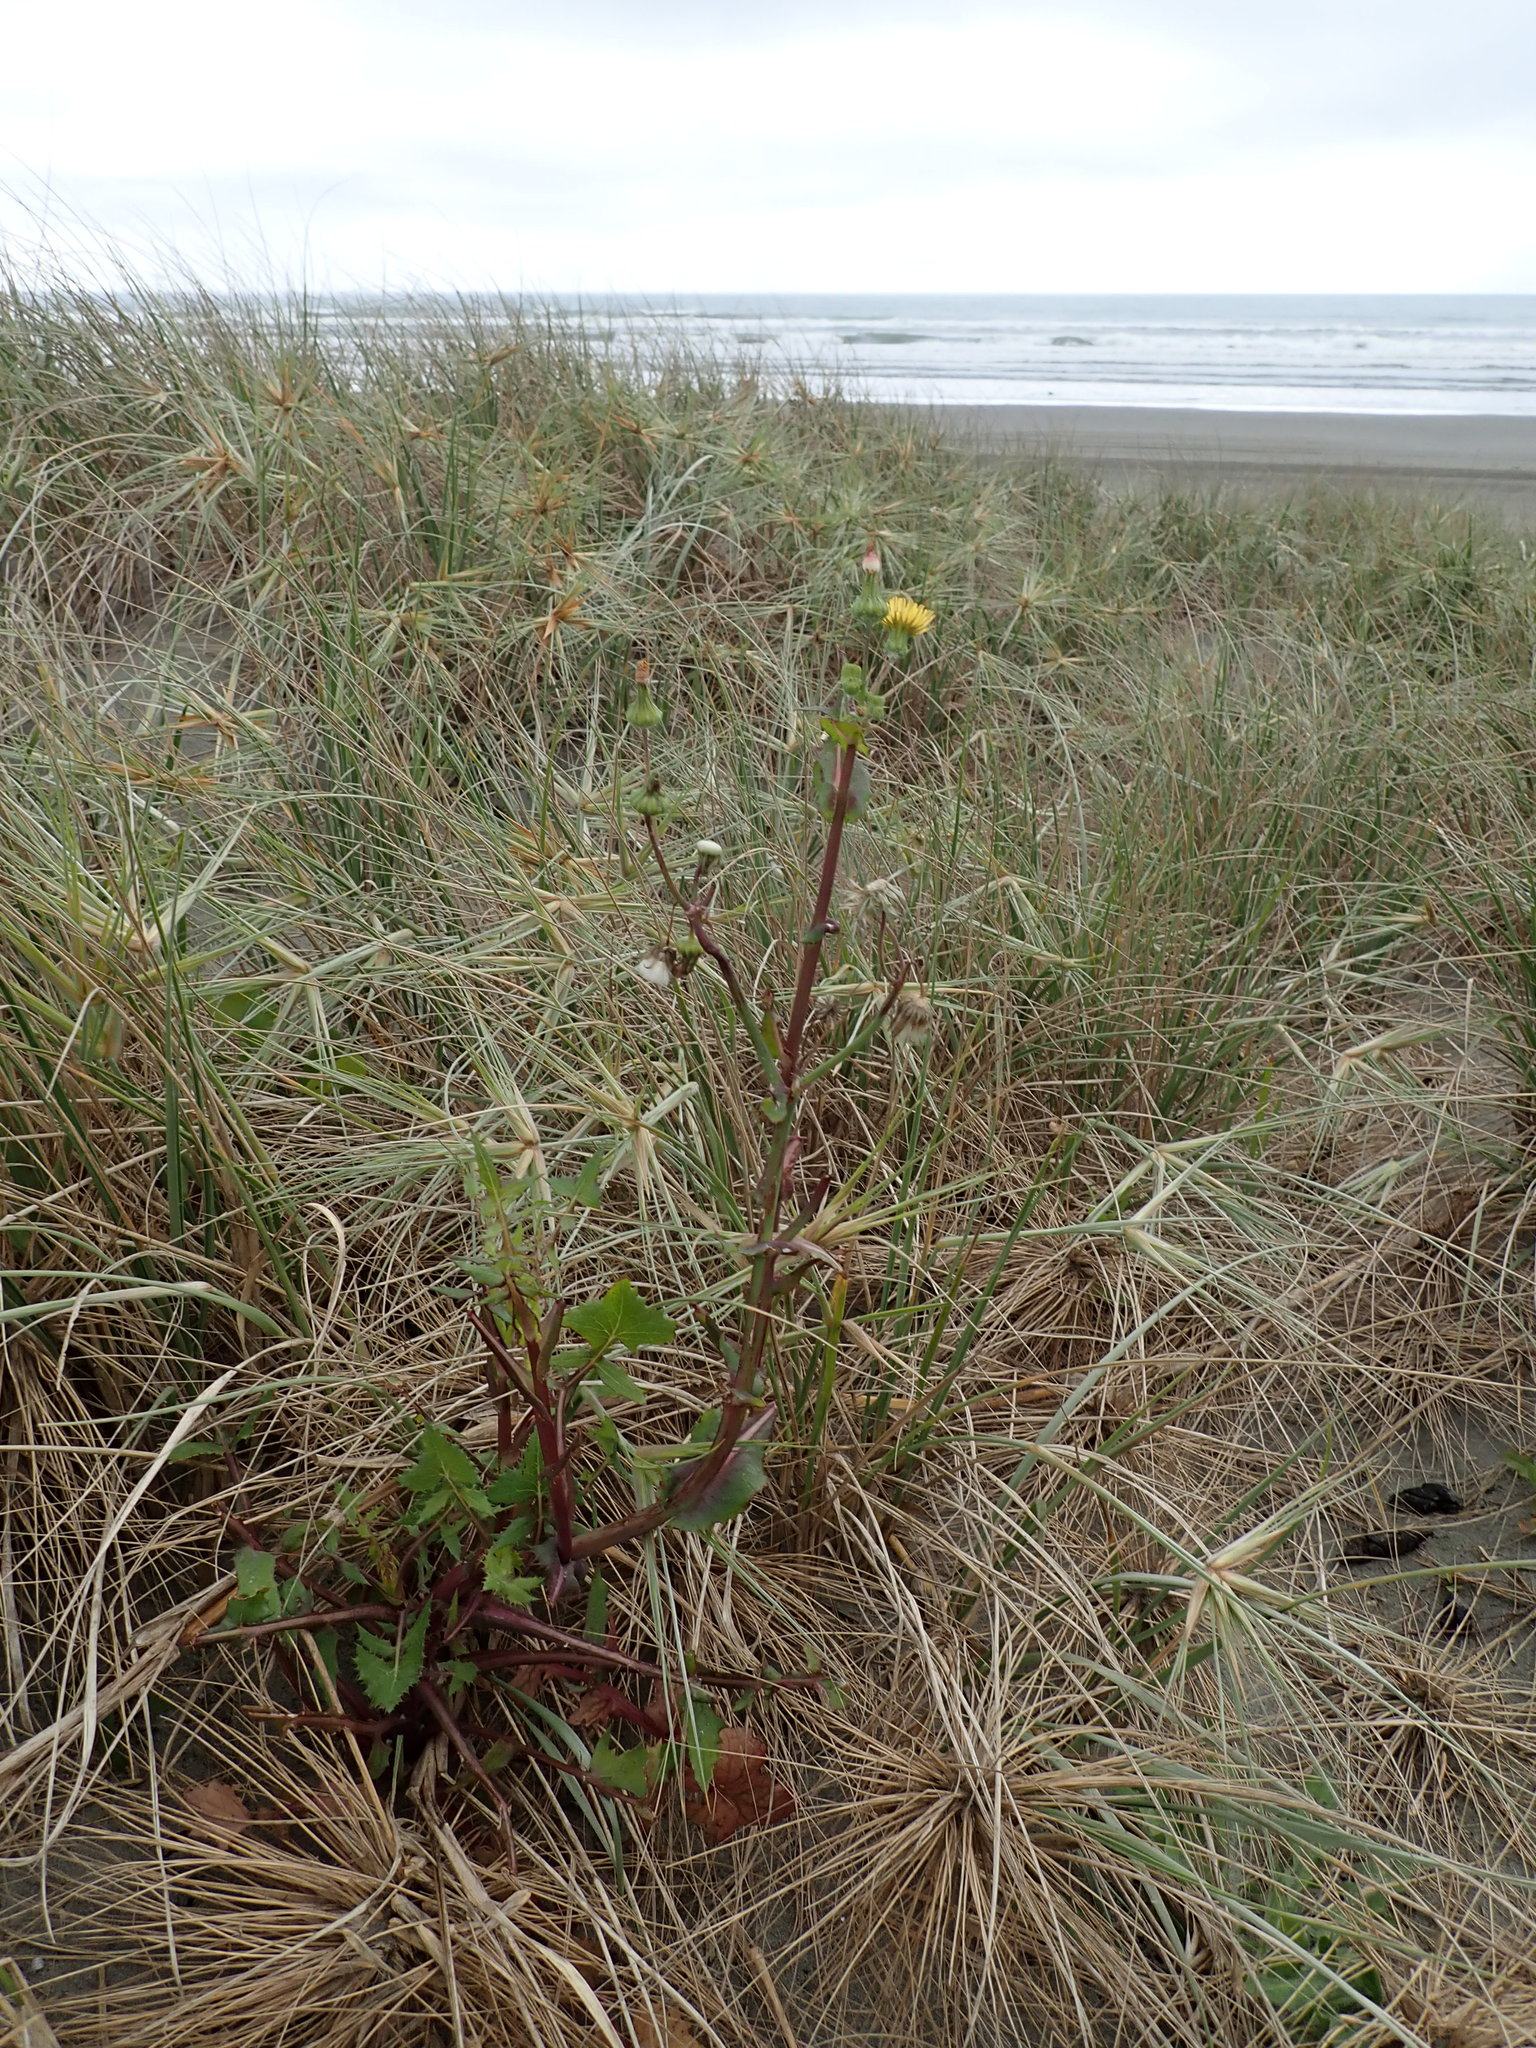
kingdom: Plantae
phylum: Tracheophyta
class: Magnoliopsida
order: Asterales
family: Asteraceae
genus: Sonchus
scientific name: Sonchus oleraceus
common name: Common sowthistle
